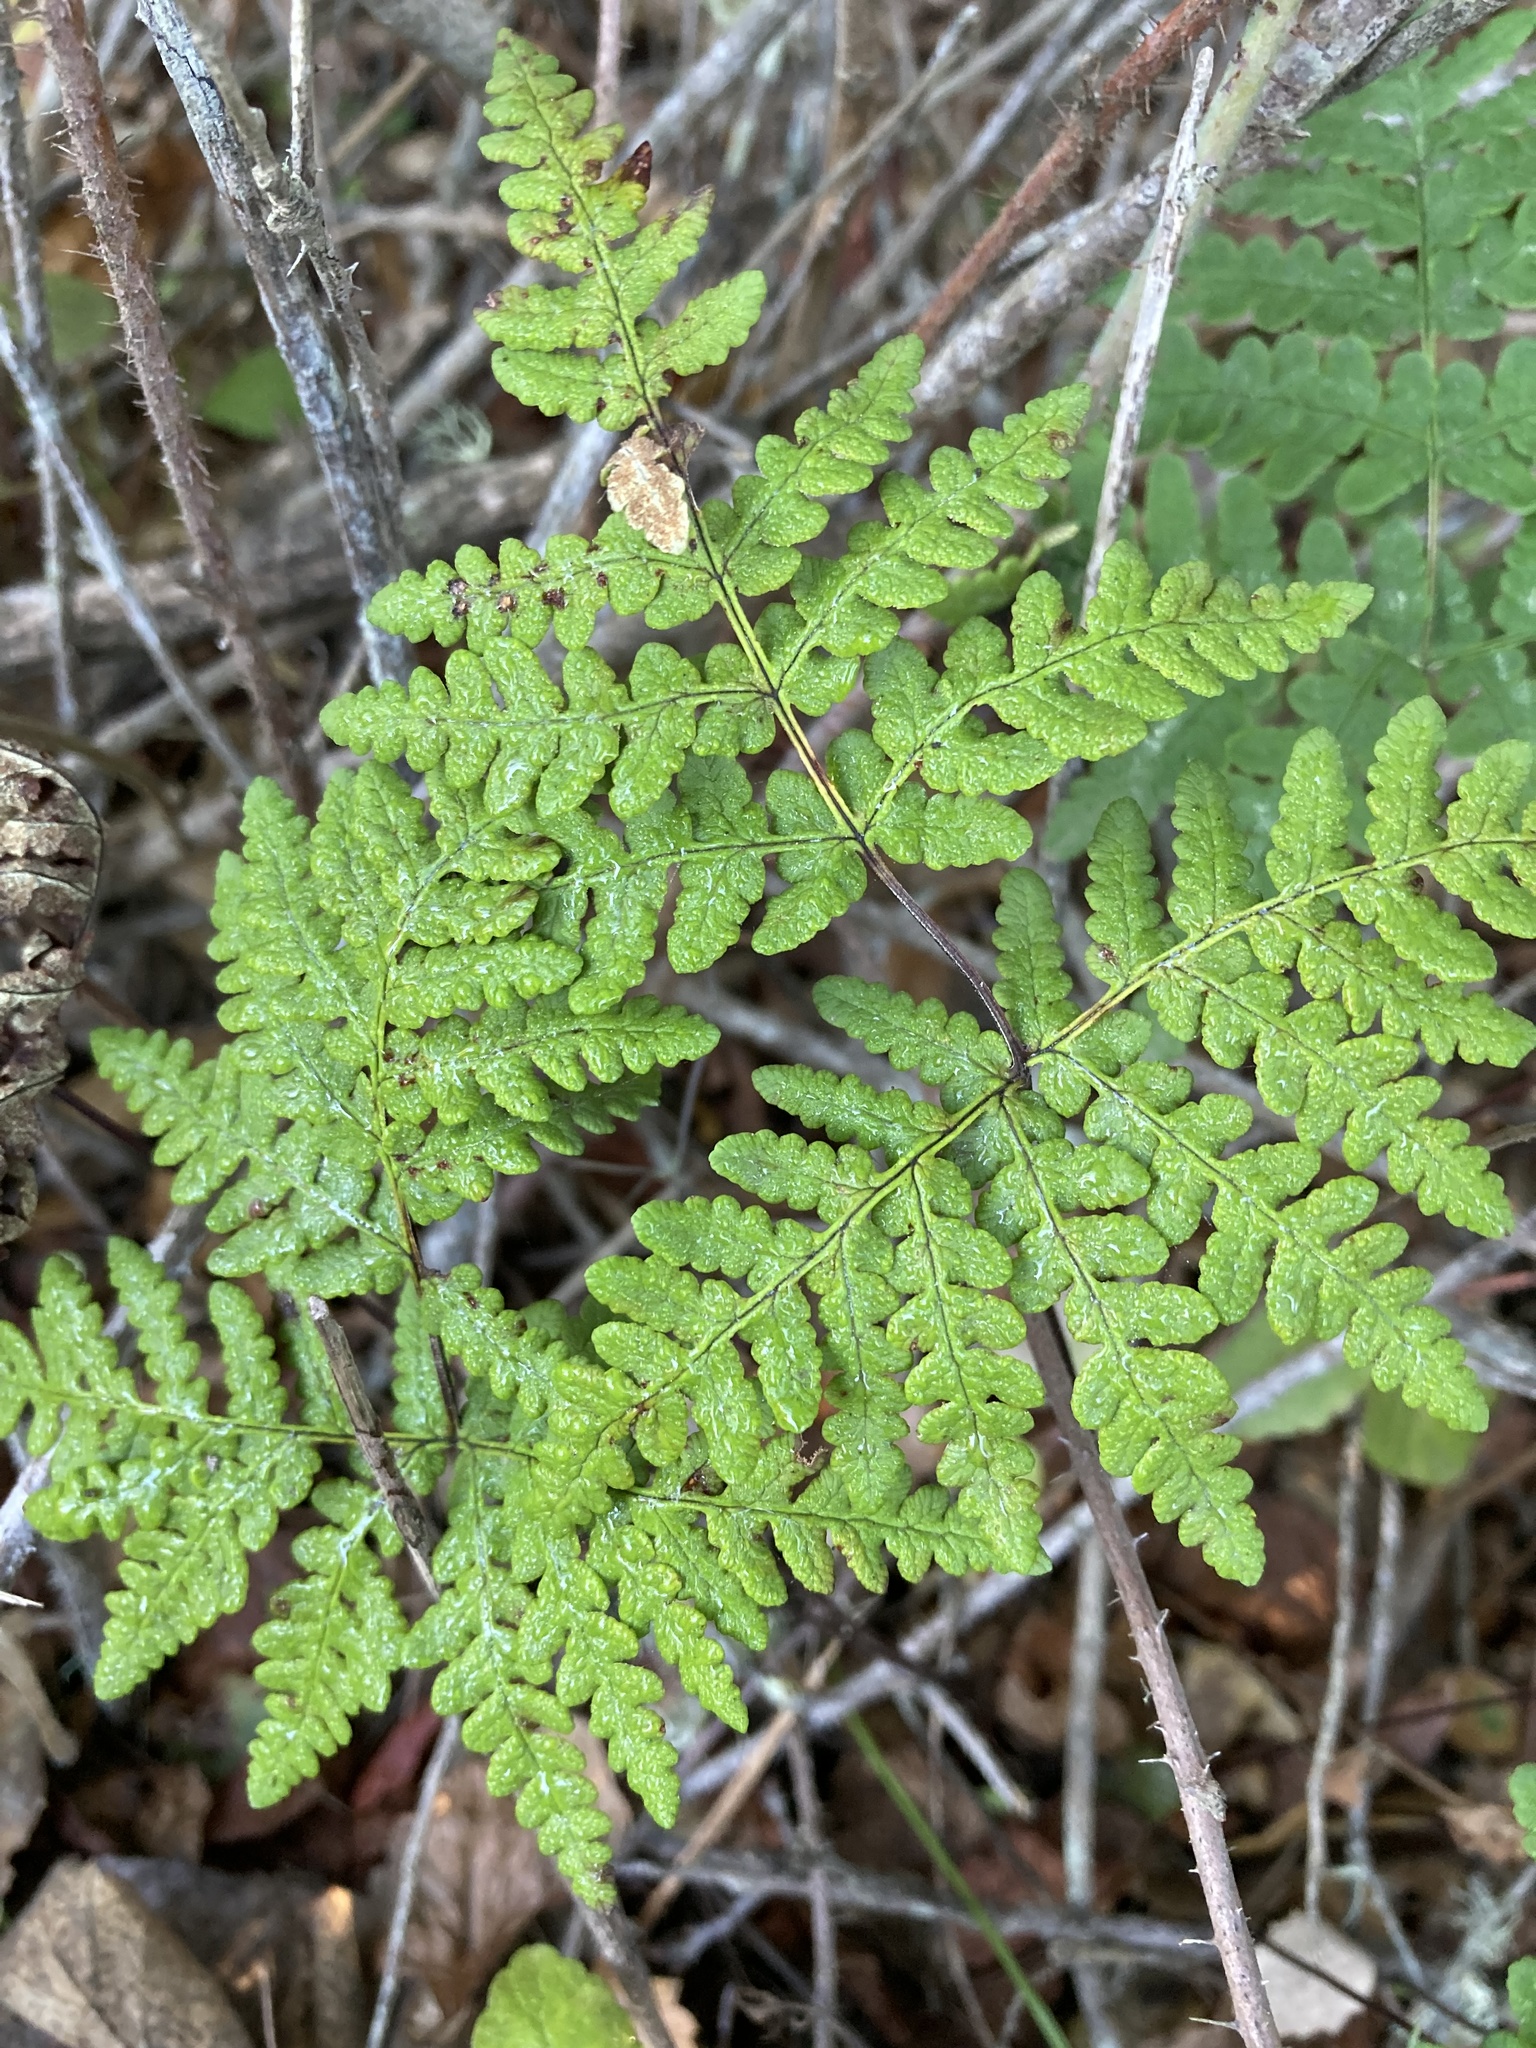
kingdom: Plantae
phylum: Tracheophyta
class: Polypodiopsida
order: Polypodiales
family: Pteridaceae
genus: Pentagramma
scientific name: Pentagramma triangularis
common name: Gold fern
